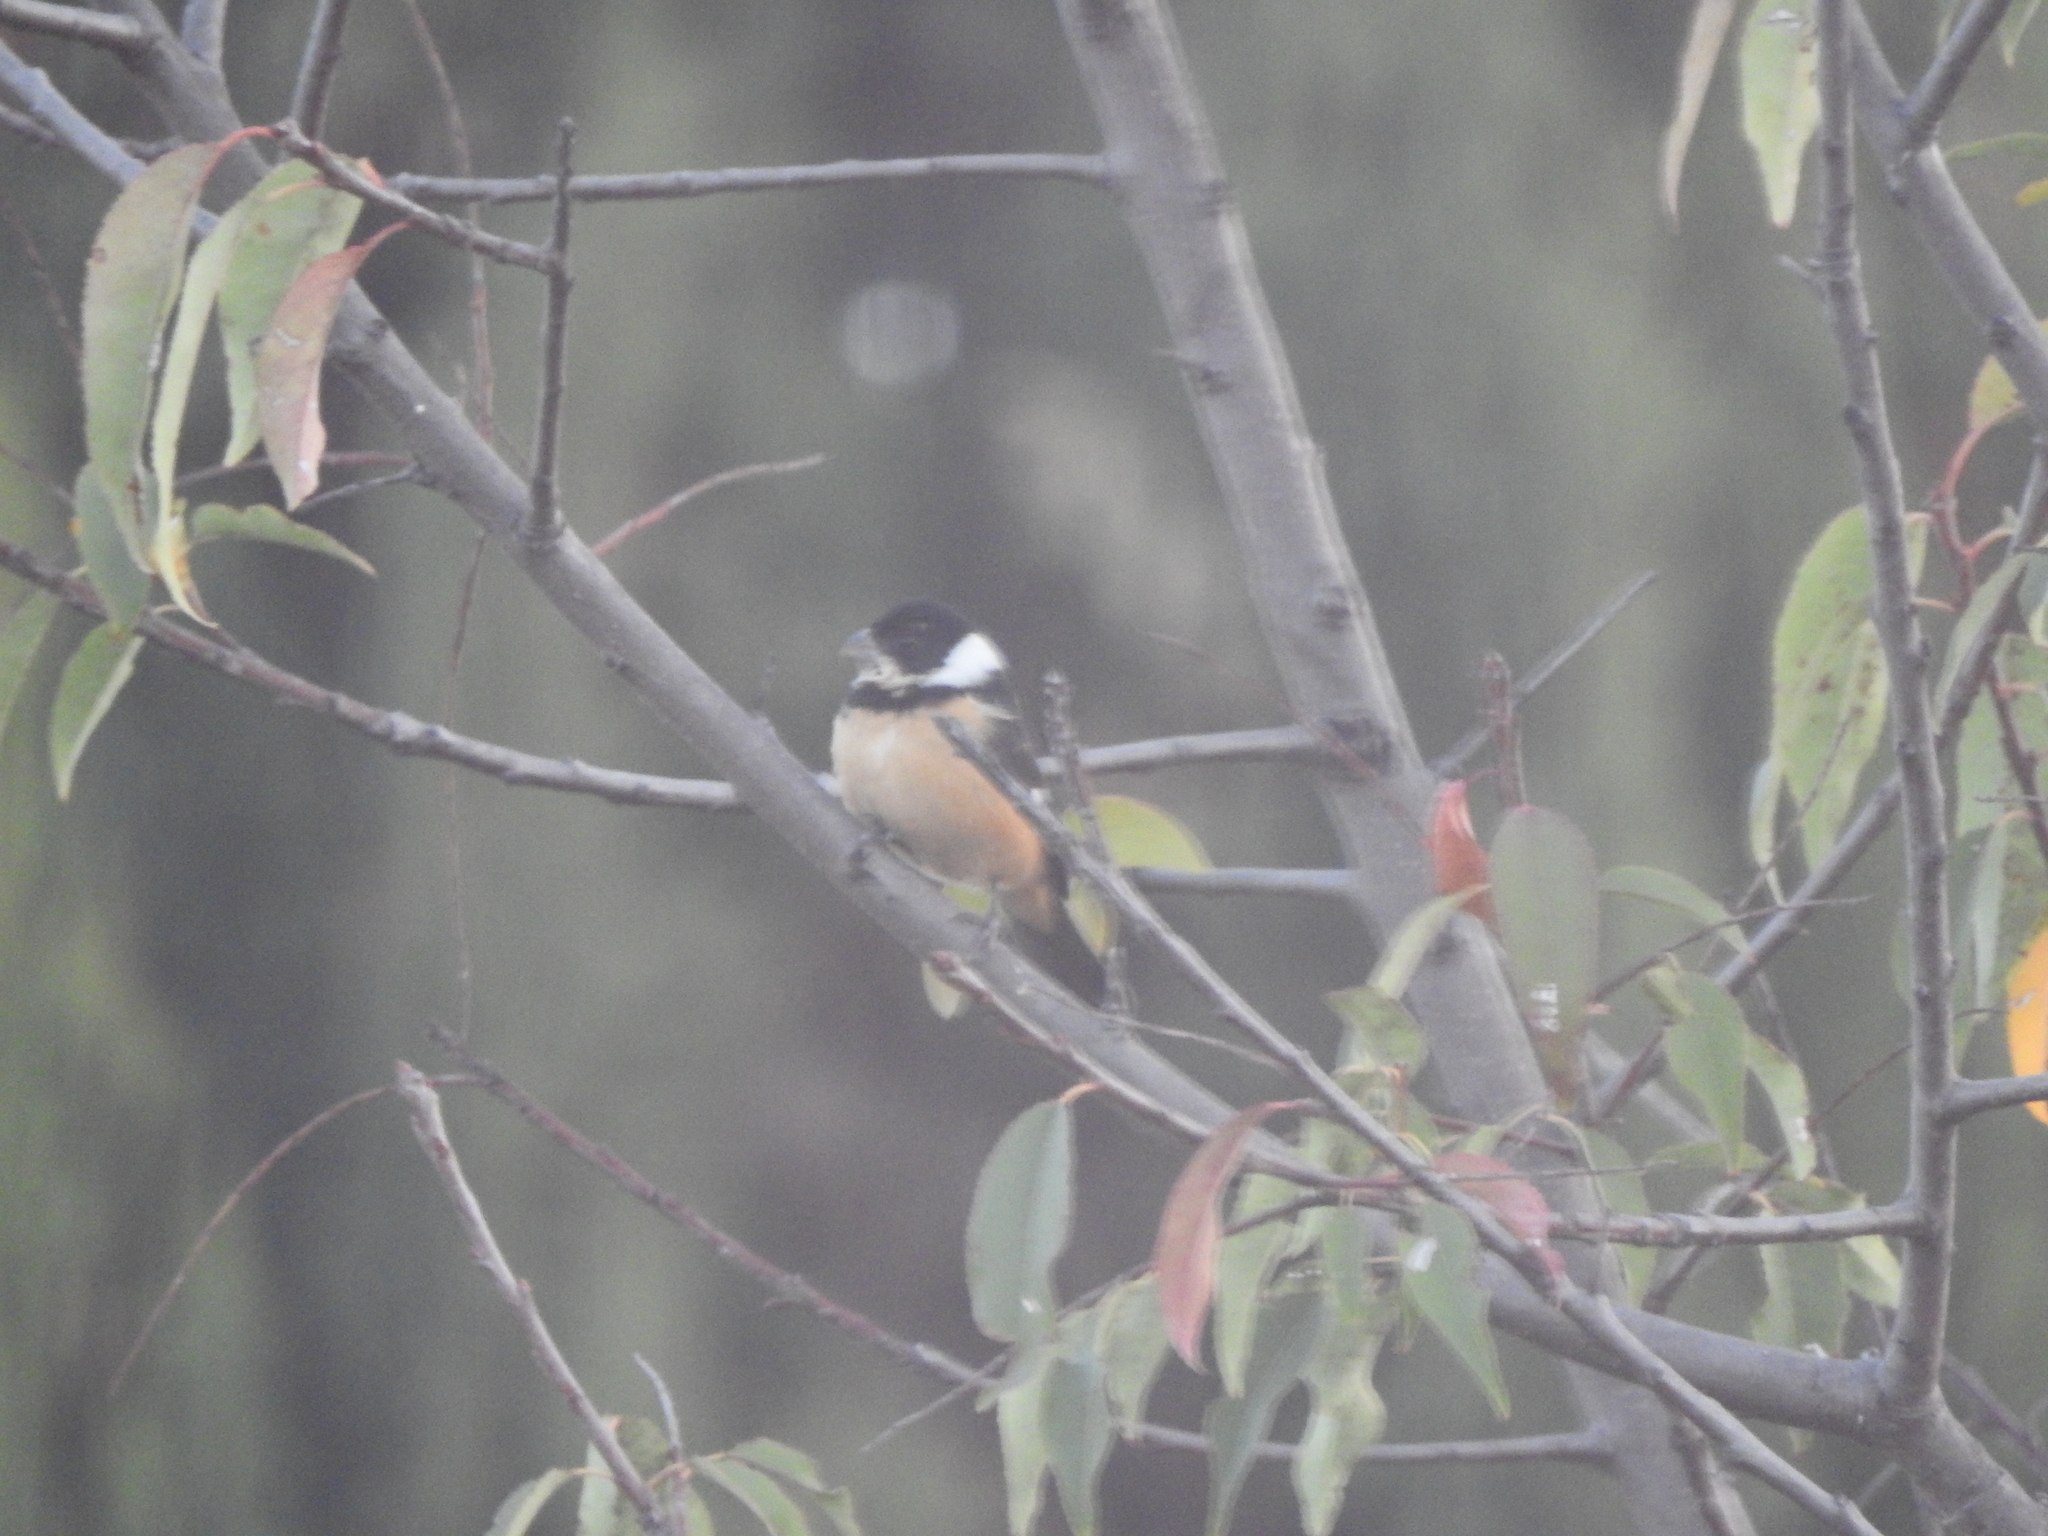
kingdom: Animalia
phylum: Chordata
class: Aves
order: Passeriformes
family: Thraupidae
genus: Sporophila
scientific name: Sporophila torqueola
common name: White-collared seedeater
